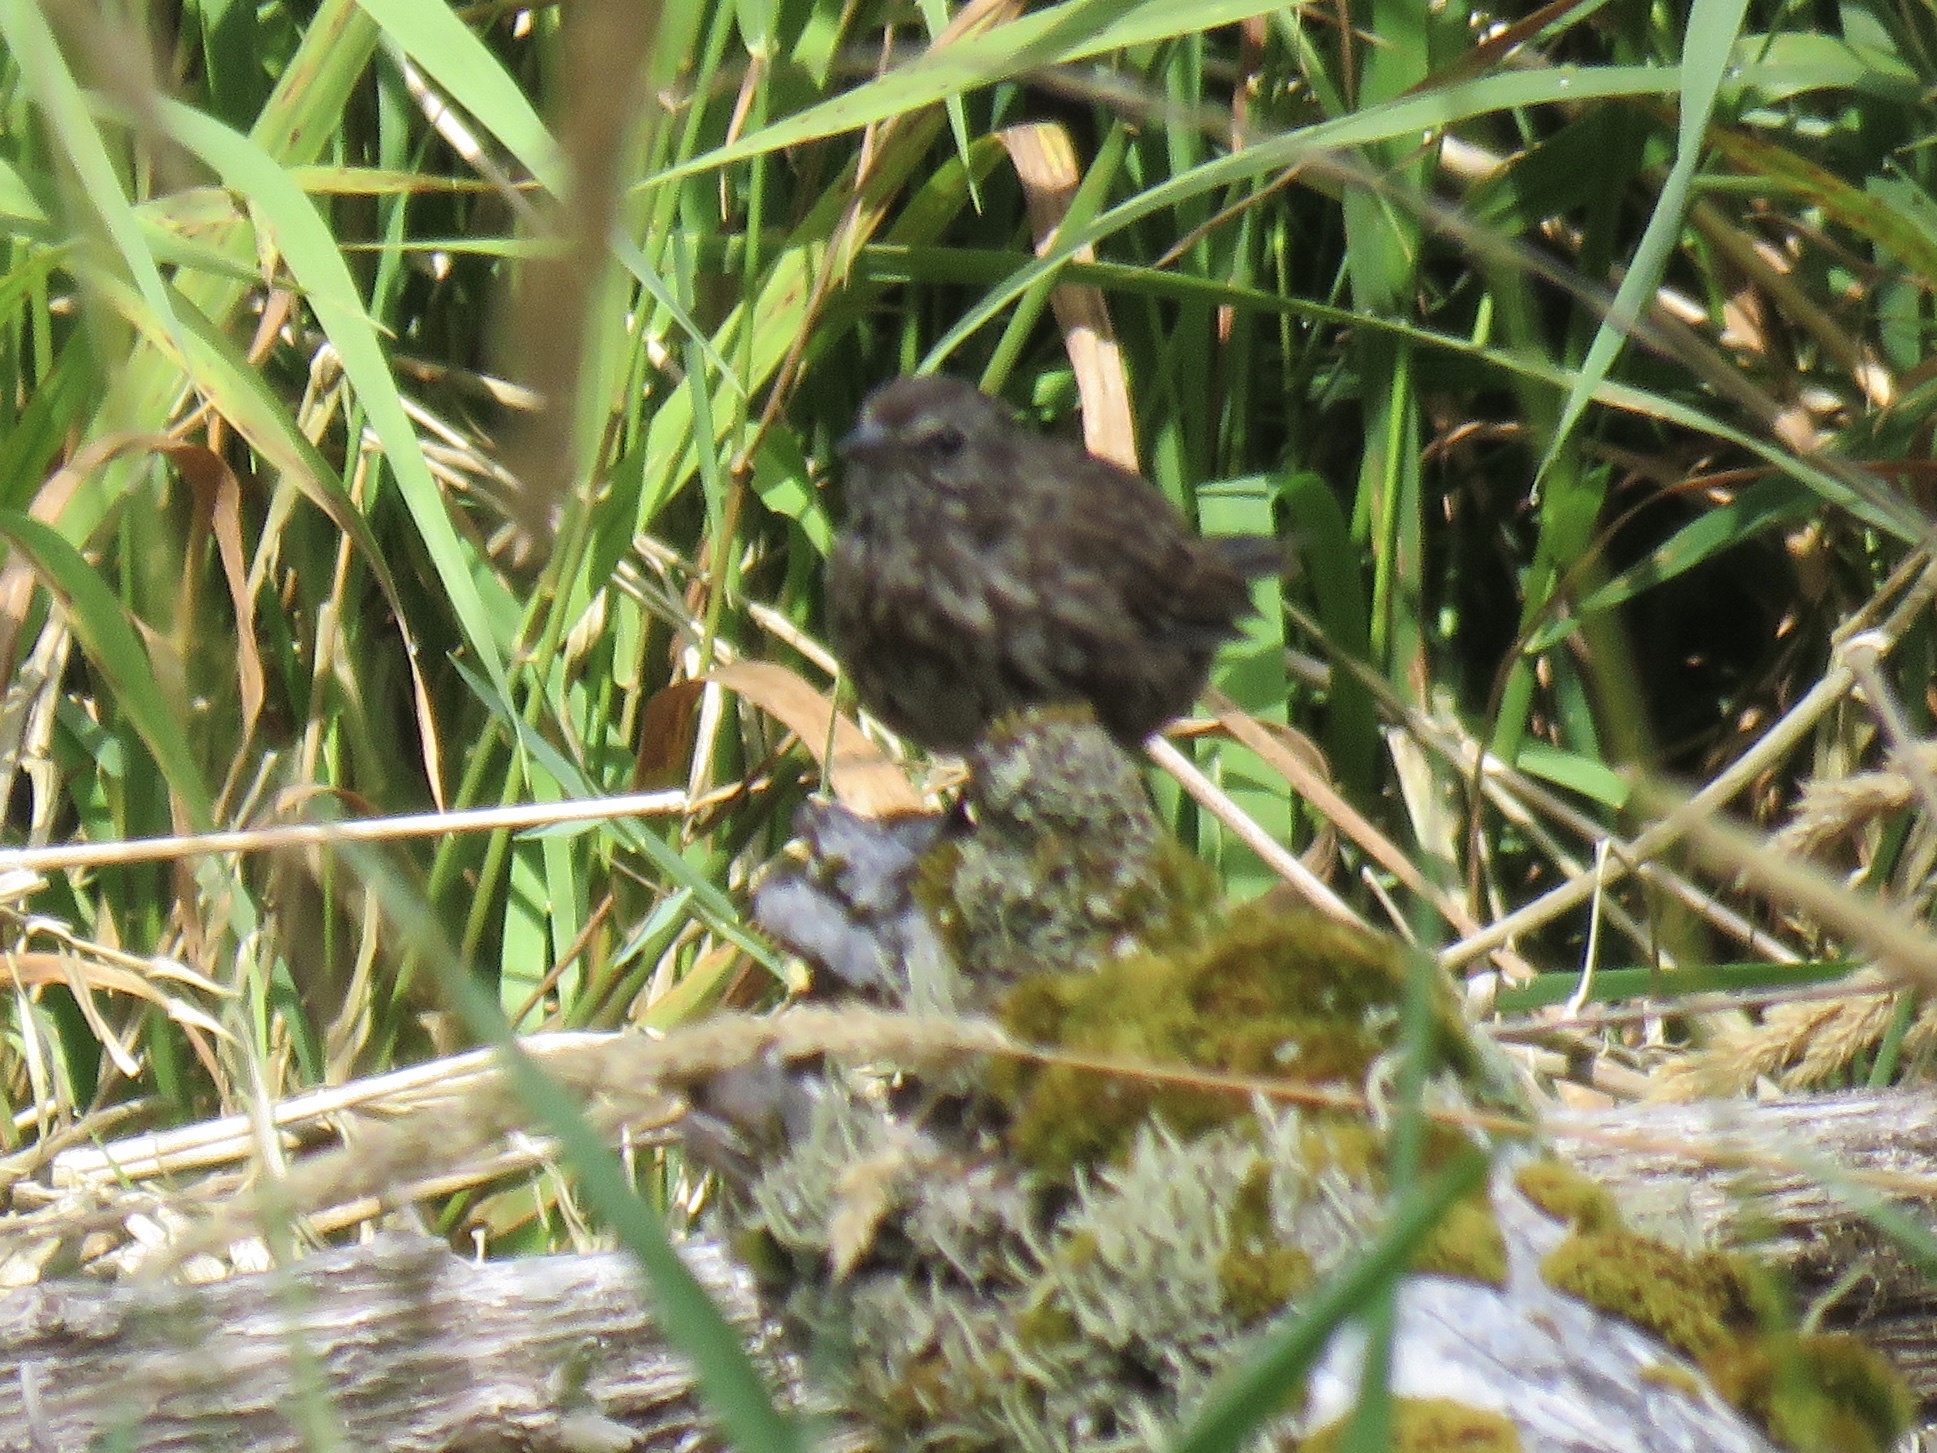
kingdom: Animalia
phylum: Chordata
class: Aves
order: Passeriformes
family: Passerellidae
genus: Melospiza
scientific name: Melospiza melodia
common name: Song sparrow
